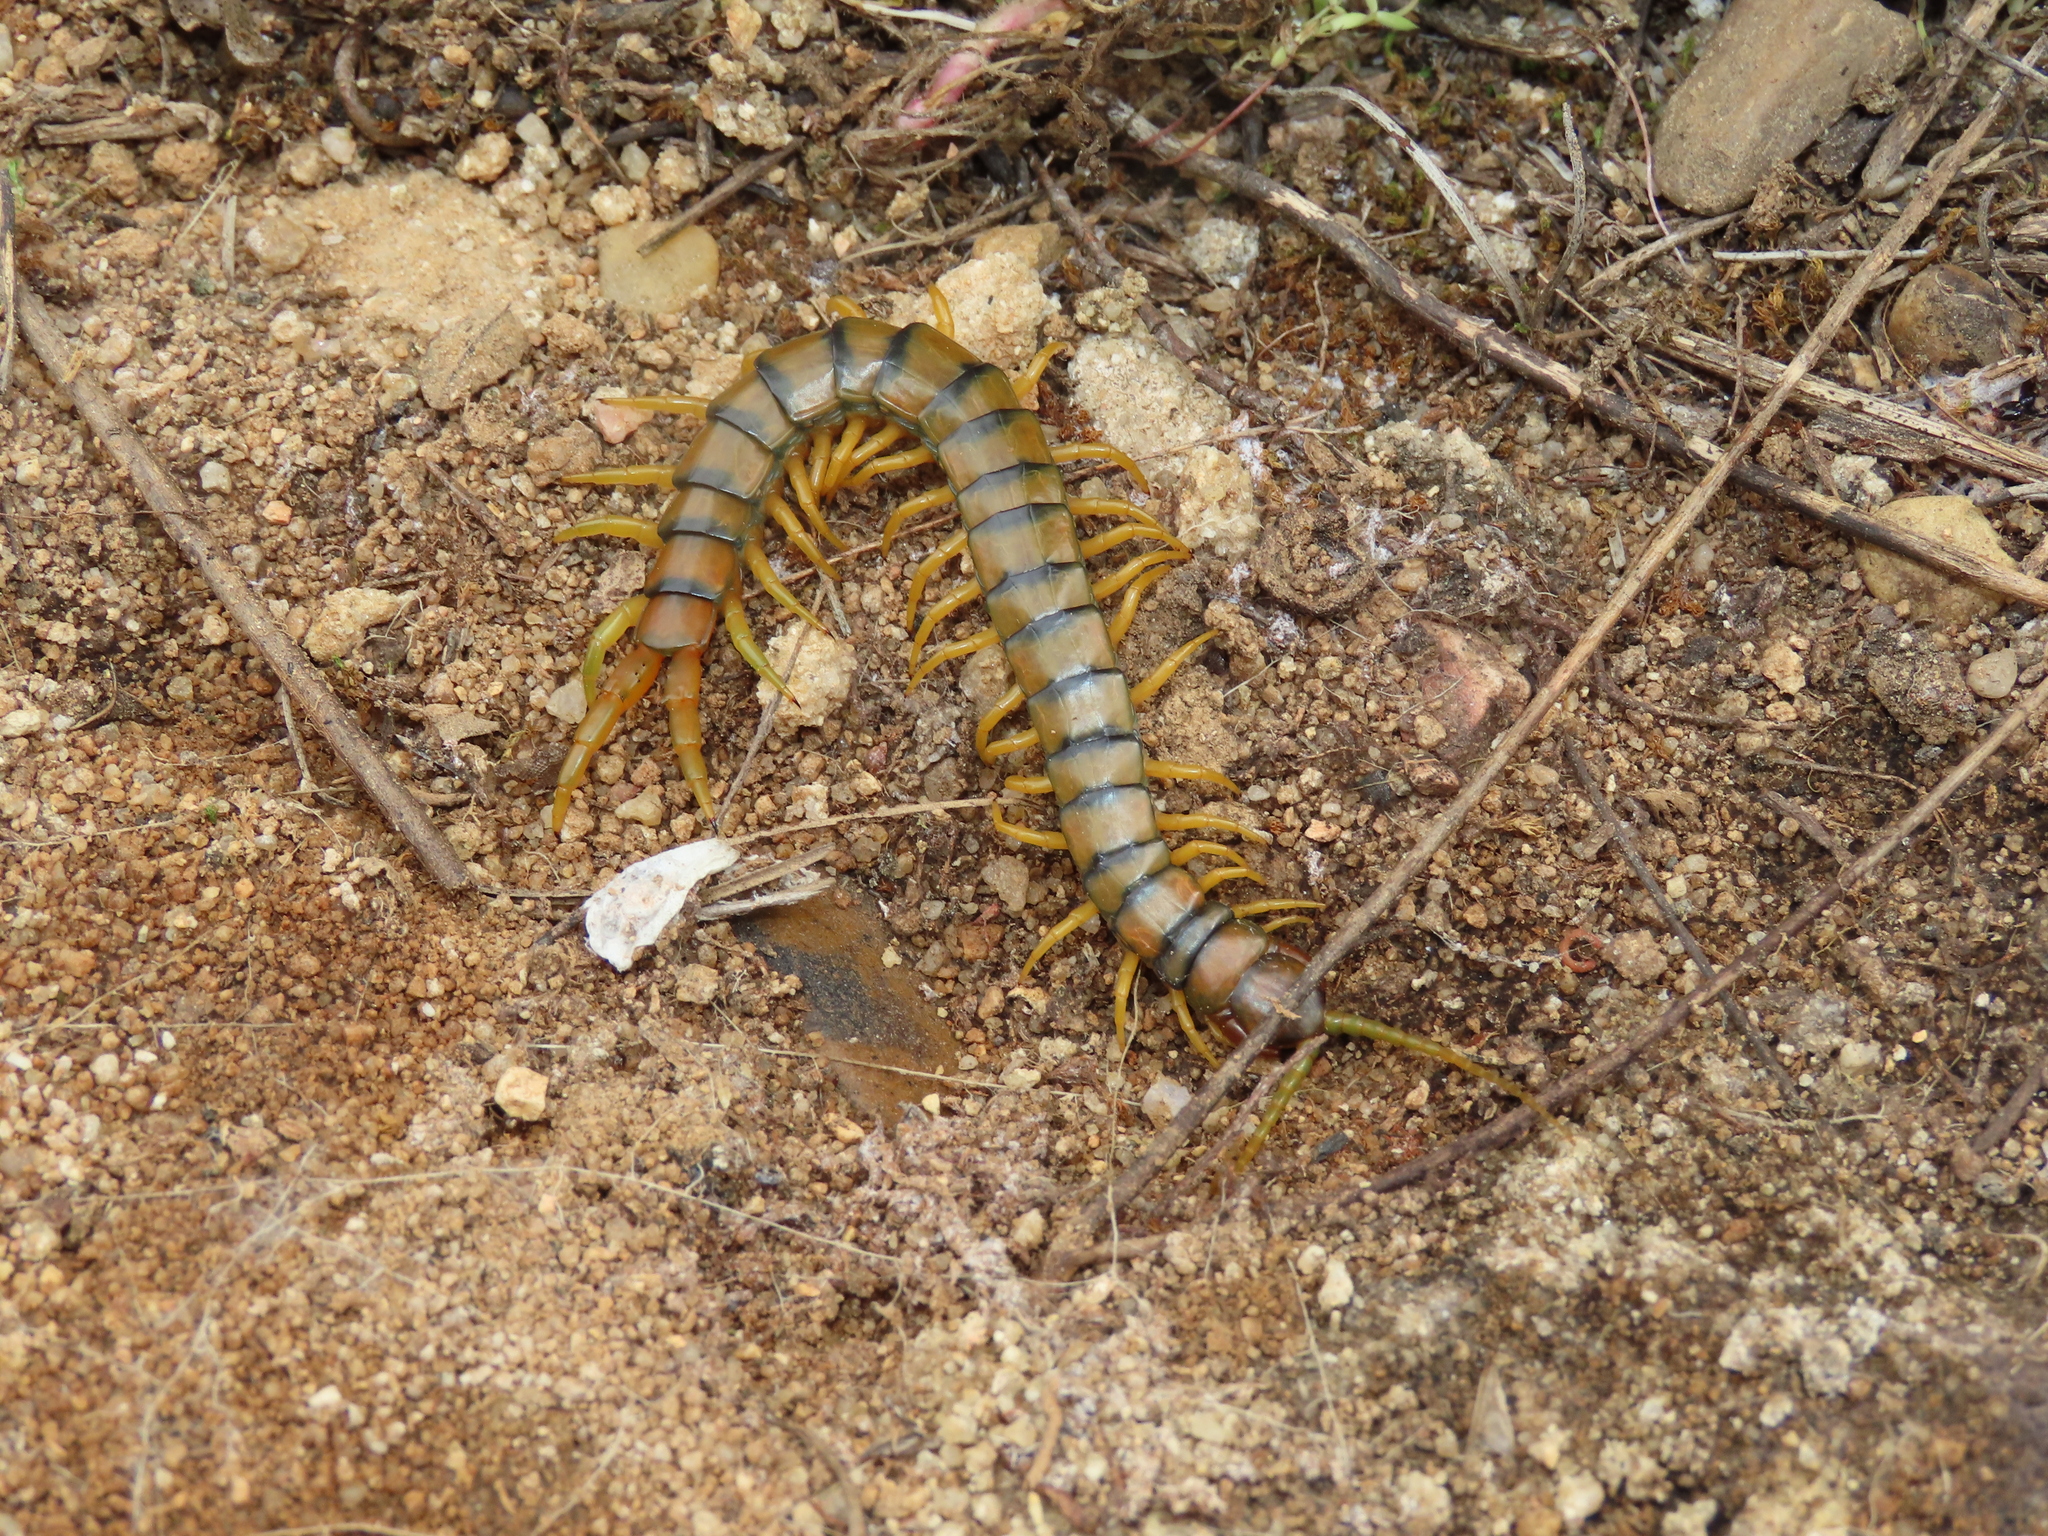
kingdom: Animalia
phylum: Arthropoda
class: Chilopoda
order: Scolopendromorpha
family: Scolopendridae
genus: Scolopendra
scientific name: Scolopendra cingulata
